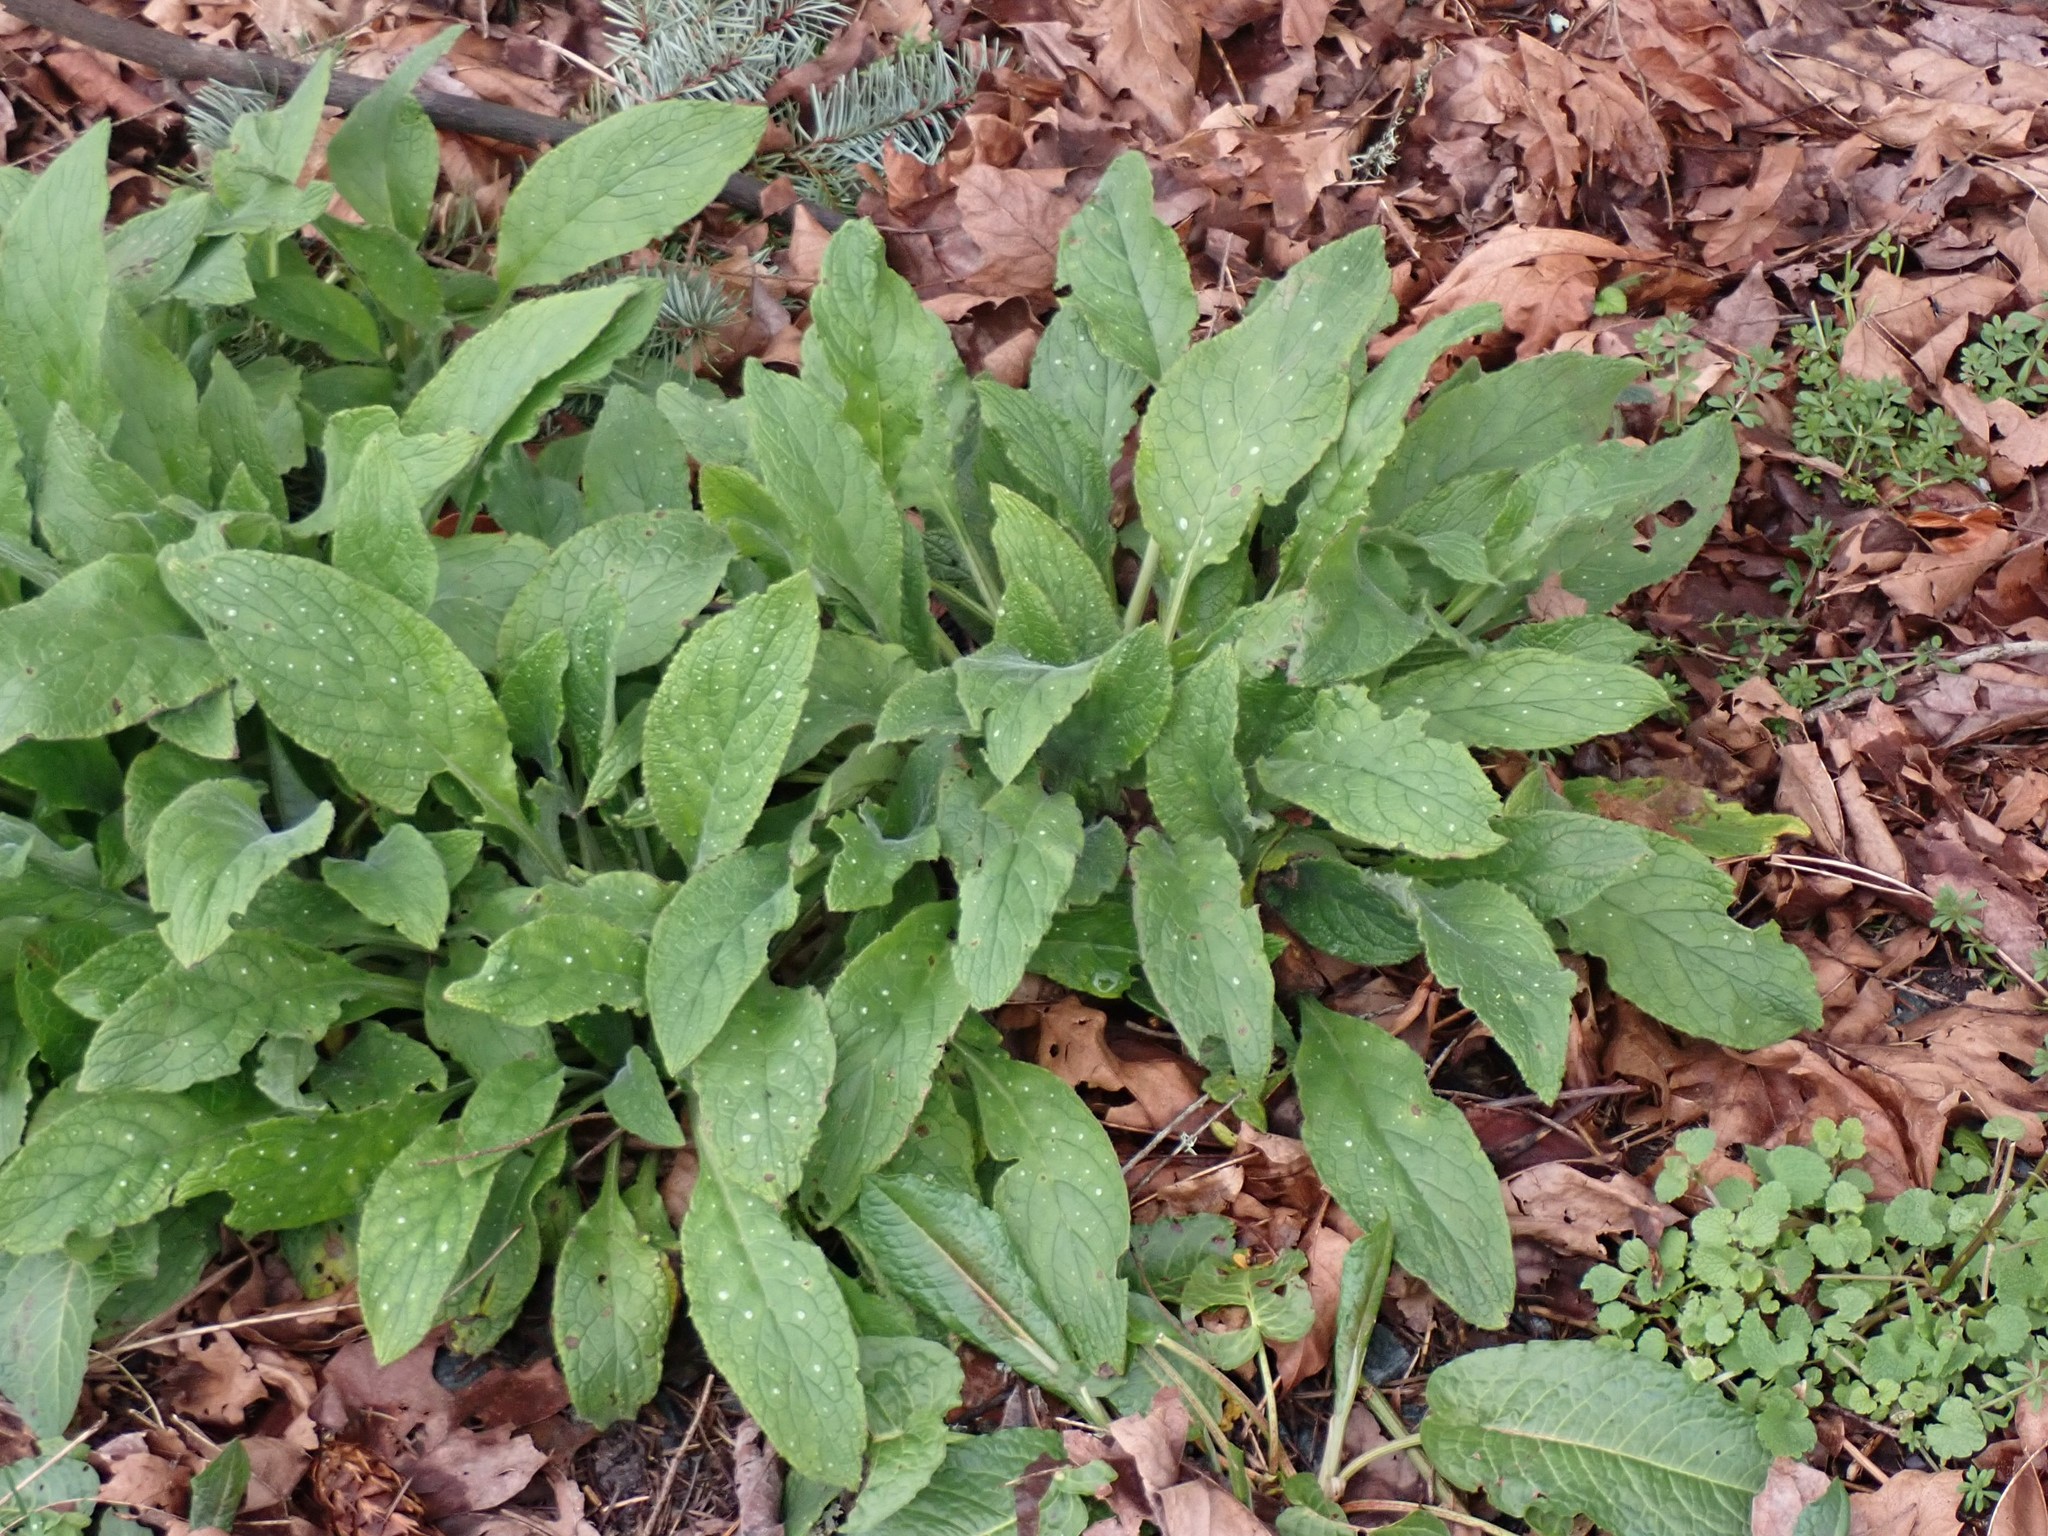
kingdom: Plantae
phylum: Tracheophyta
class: Magnoliopsida
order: Boraginales
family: Boraginaceae
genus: Pentaglottis
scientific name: Pentaglottis sempervirens
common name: Green alkanet
